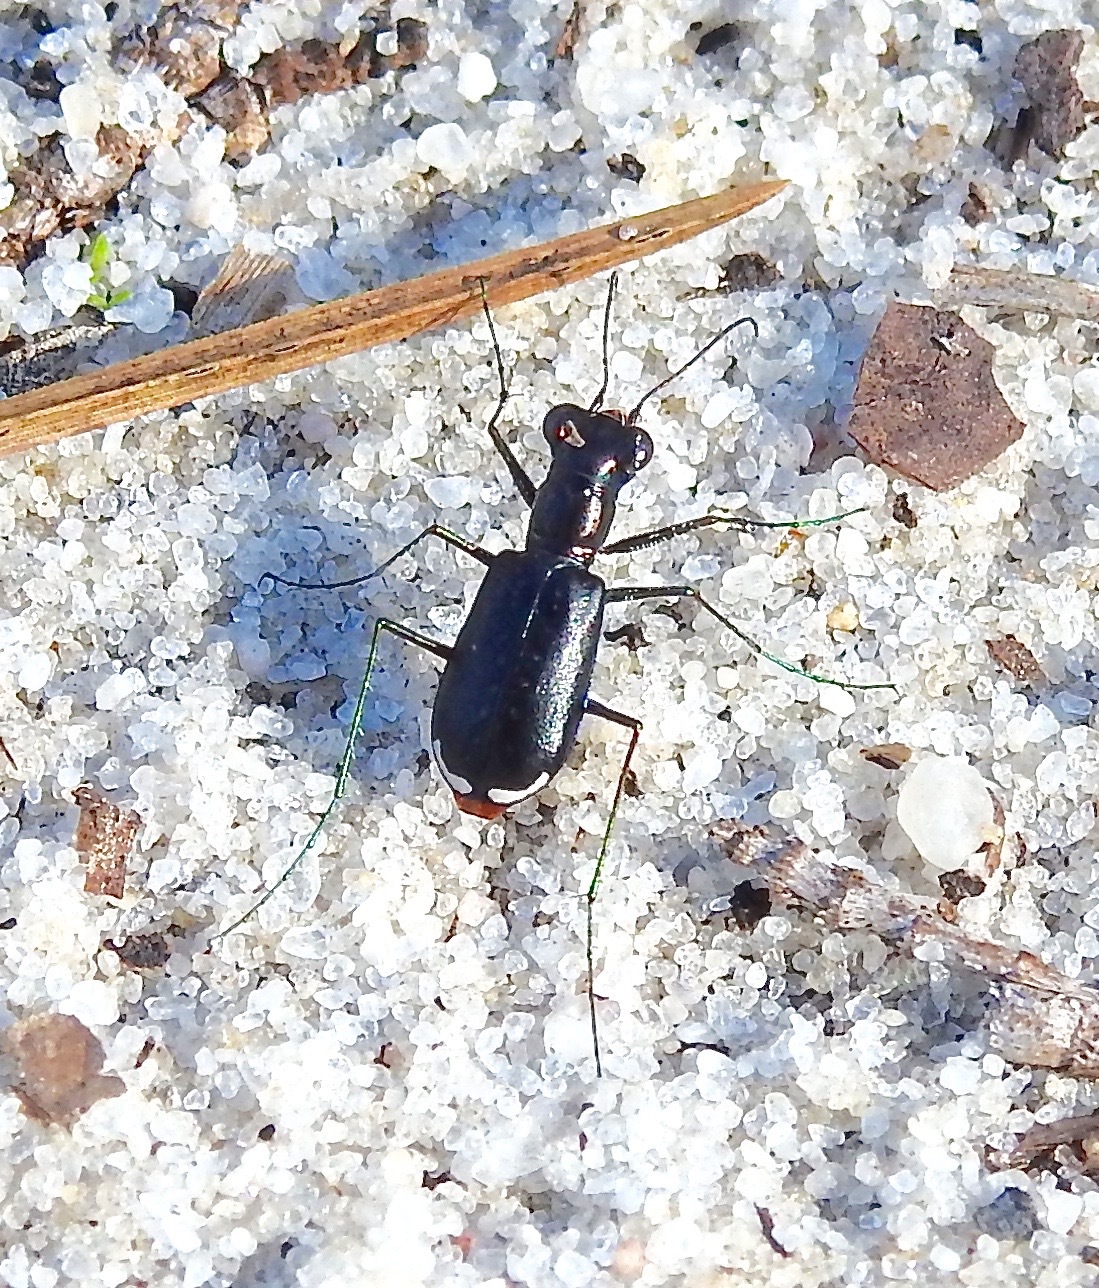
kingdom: Animalia
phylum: Arthropoda
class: Insecta
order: Coleoptera
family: Carabidae
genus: Cicindela
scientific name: Cicindela abdominalis
